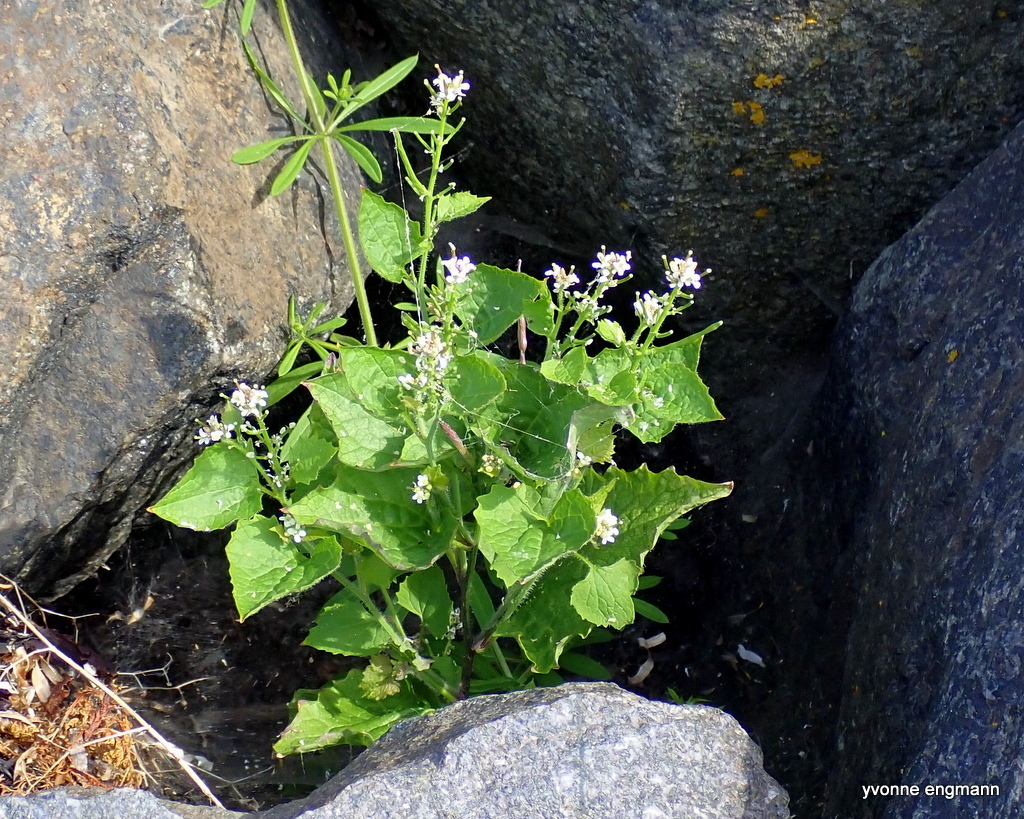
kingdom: Plantae
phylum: Tracheophyta
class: Magnoliopsida
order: Brassicales
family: Brassicaceae
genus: Alliaria
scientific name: Alliaria petiolata
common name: Garlic mustard
